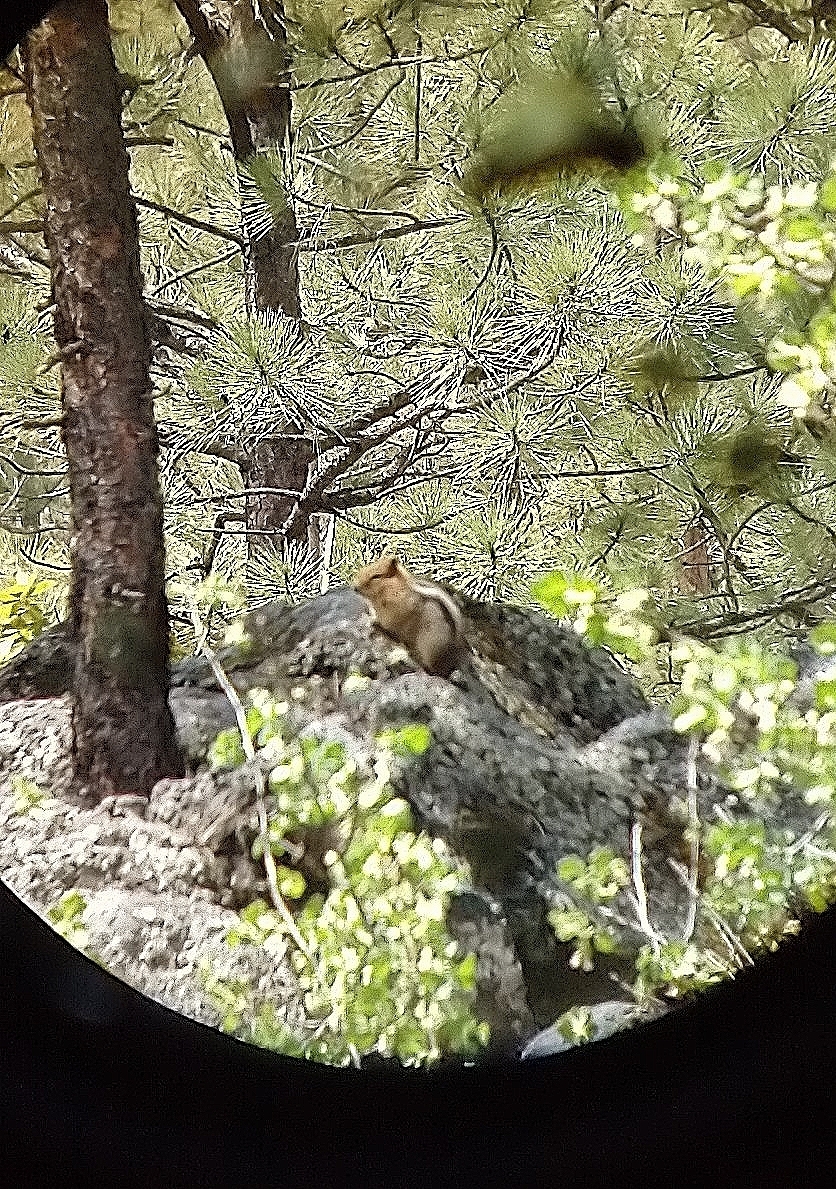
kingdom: Animalia
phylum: Chordata
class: Mammalia
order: Rodentia
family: Sciuridae
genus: Callospermophilus
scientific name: Callospermophilus lateralis
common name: Golden-mantled ground squirrel
